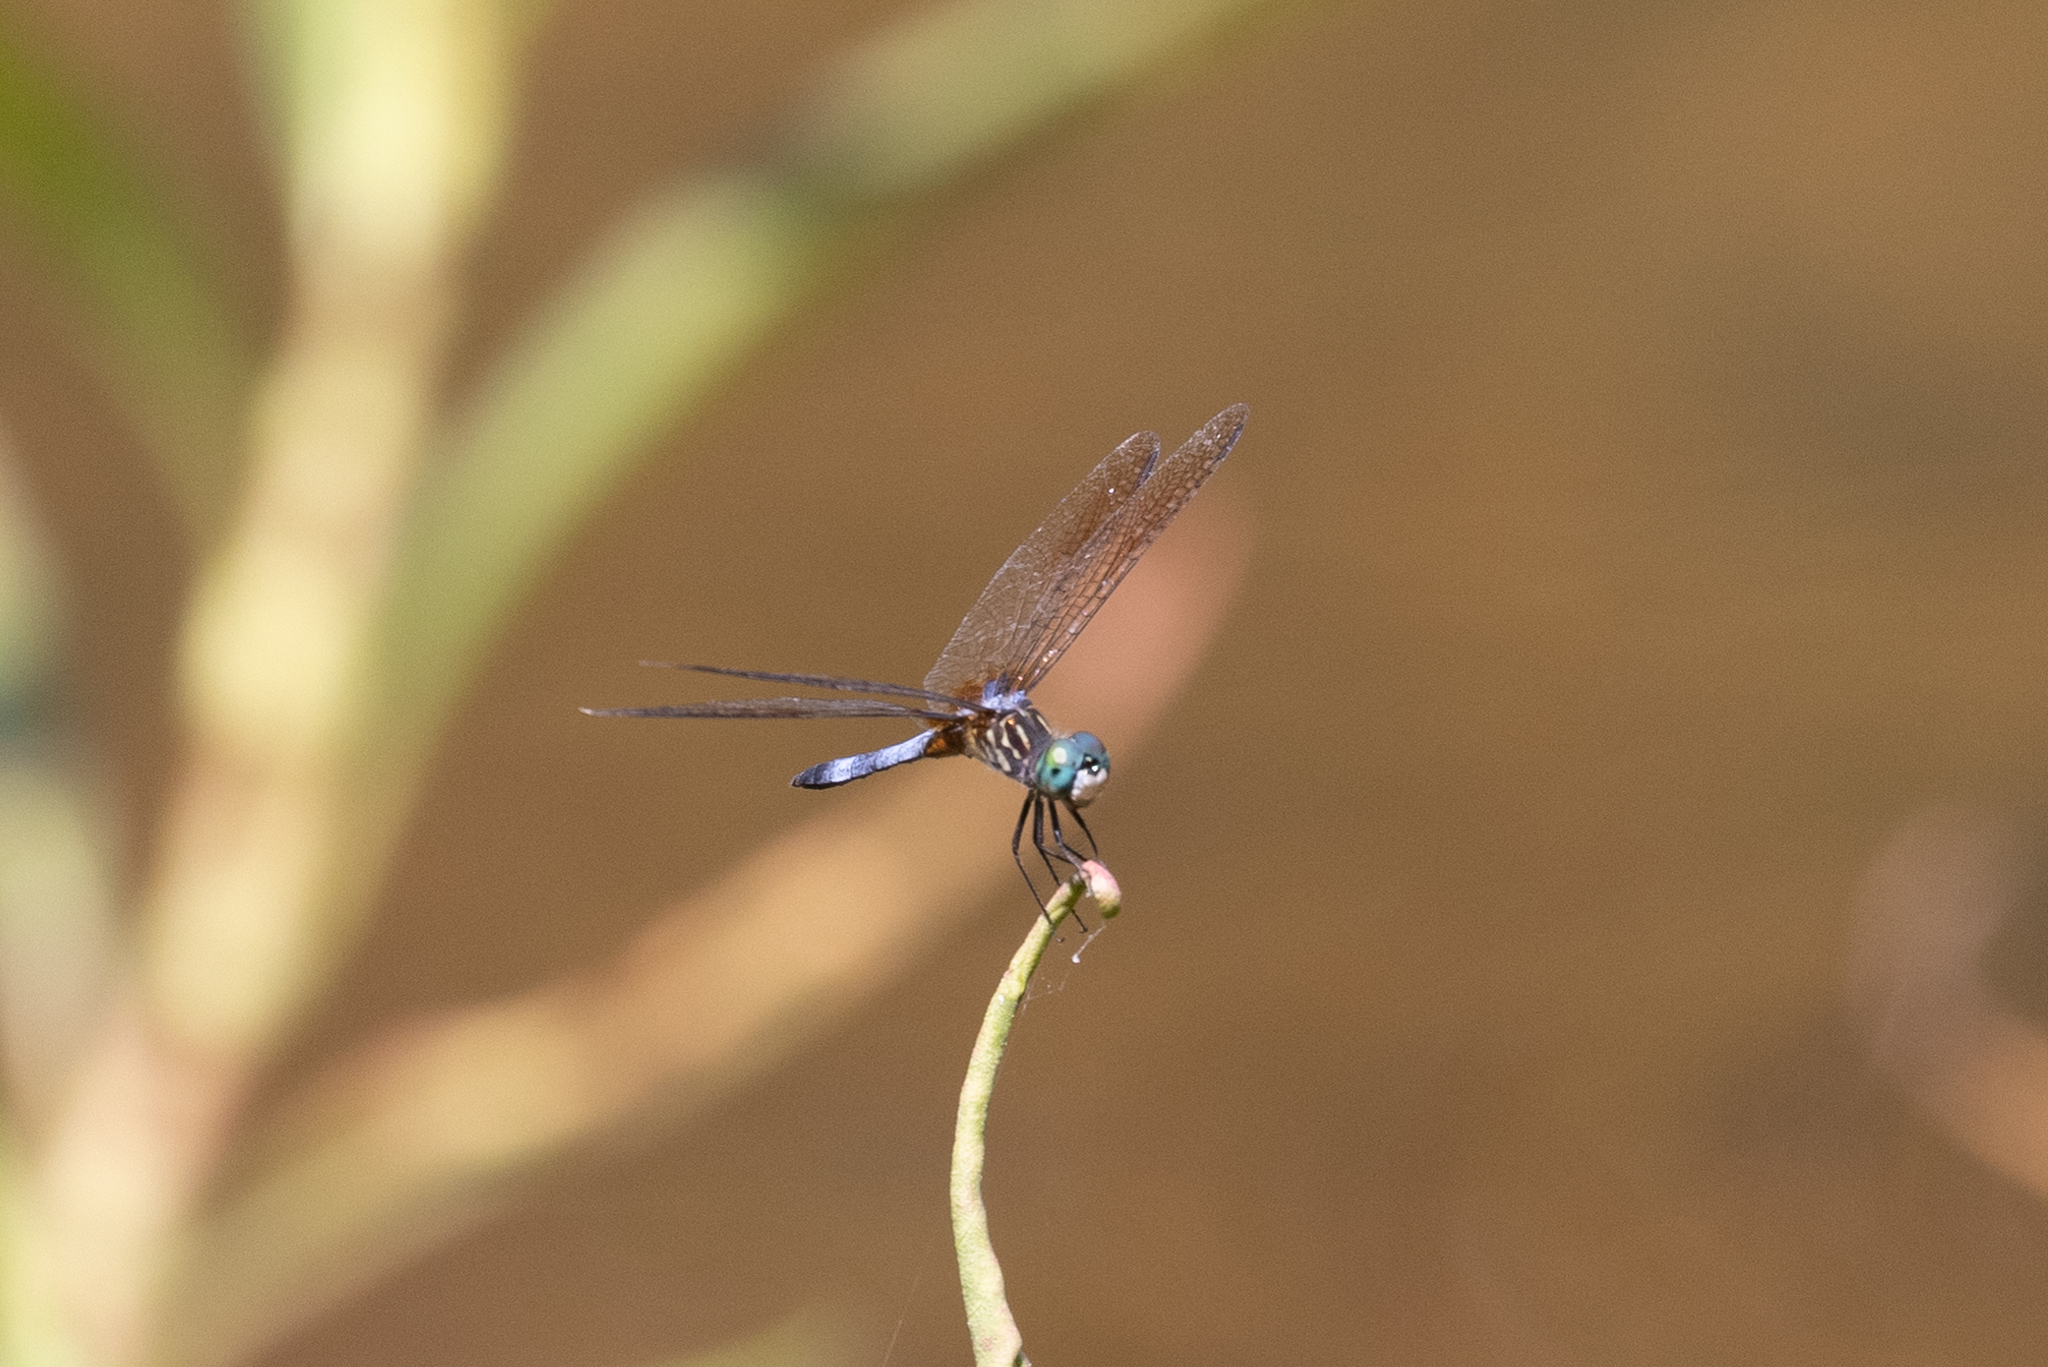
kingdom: Animalia
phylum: Arthropoda
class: Insecta
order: Odonata
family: Libellulidae
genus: Pachydiplax
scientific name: Pachydiplax longipennis
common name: Blue dasher
